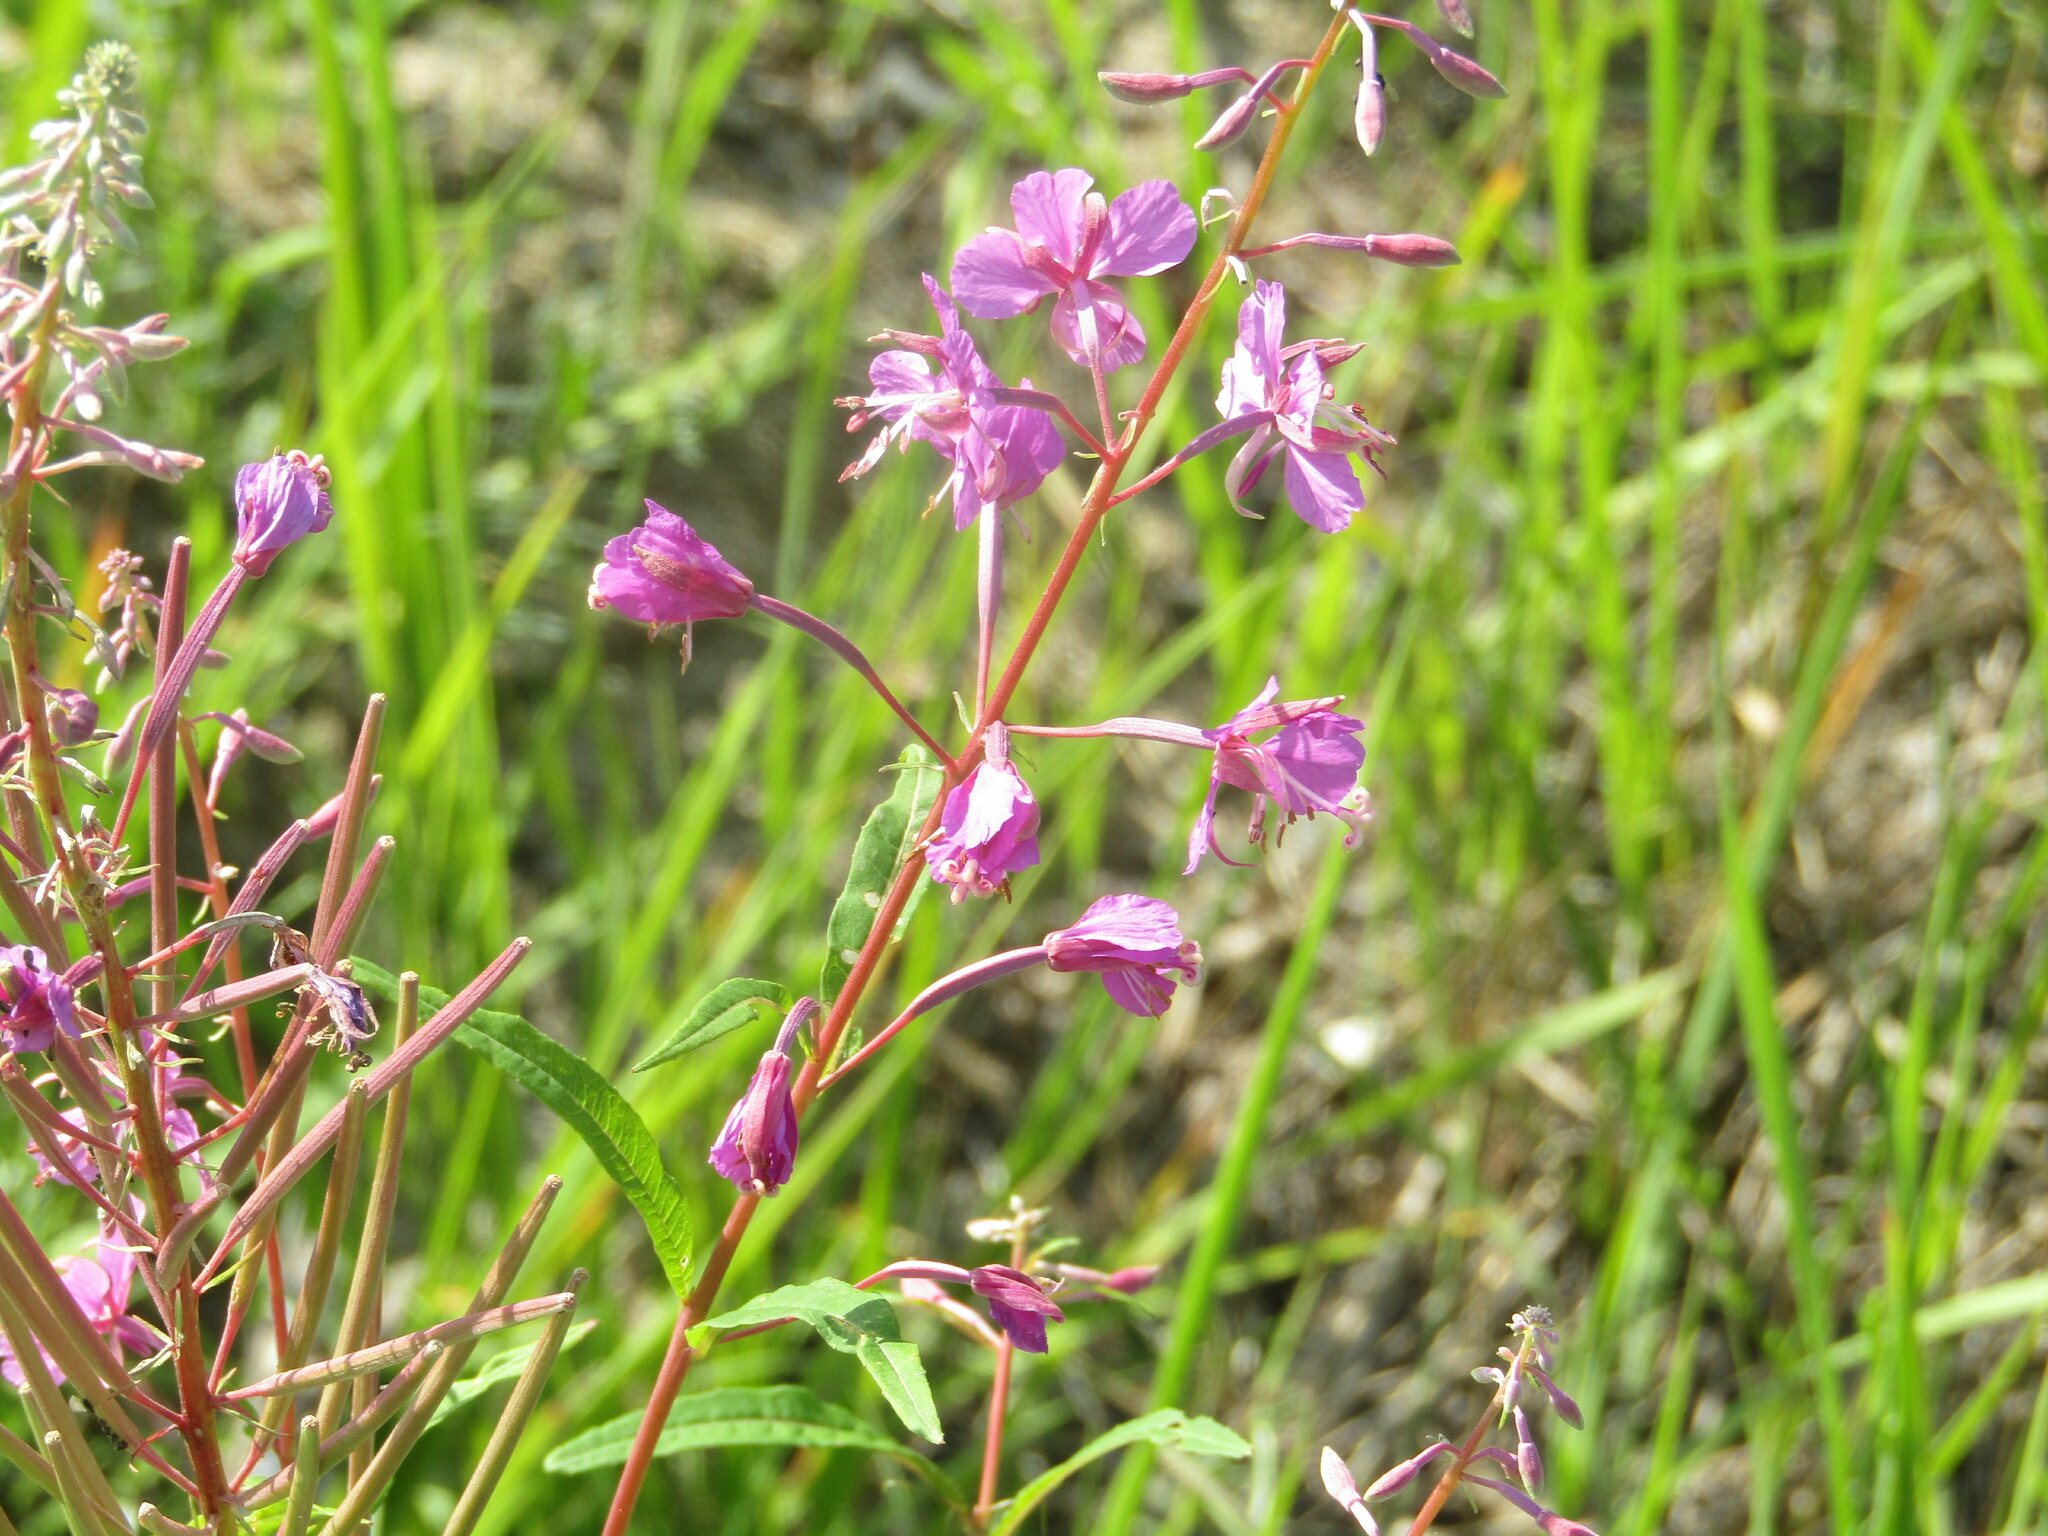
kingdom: Plantae
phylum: Tracheophyta
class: Magnoliopsida
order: Myrtales
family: Onagraceae
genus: Chamaenerion
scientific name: Chamaenerion angustifolium
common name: Fireweed
